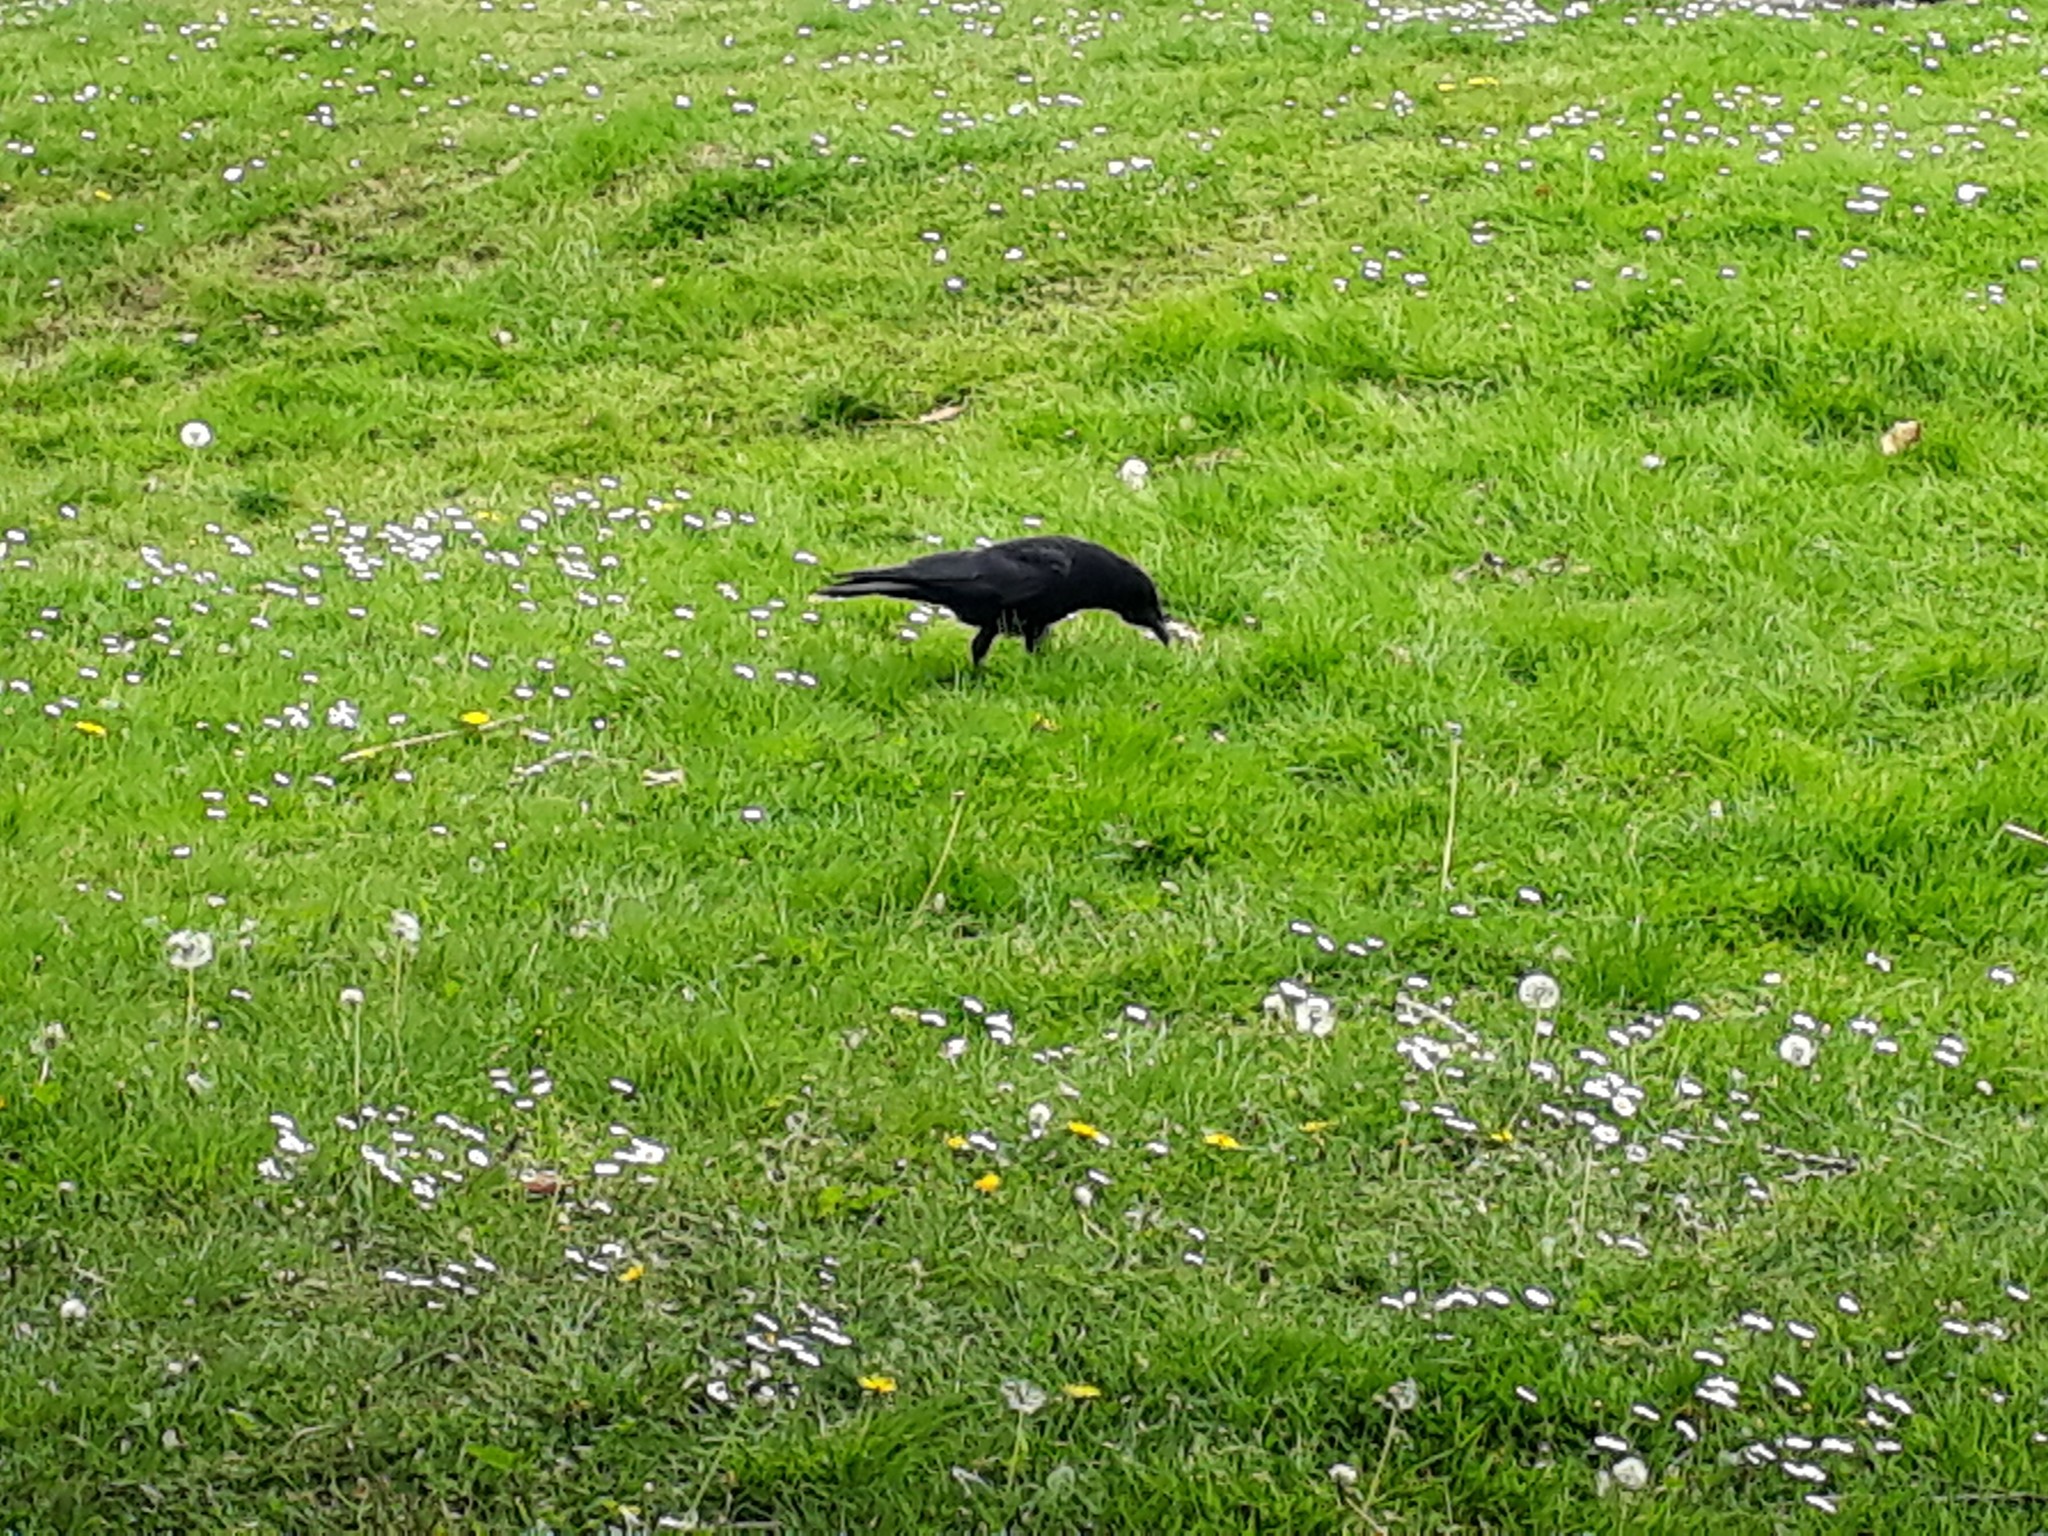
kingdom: Animalia
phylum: Chordata
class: Aves
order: Passeriformes
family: Corvidae
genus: Corvus
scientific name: Corvus corone
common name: Carrion crow
